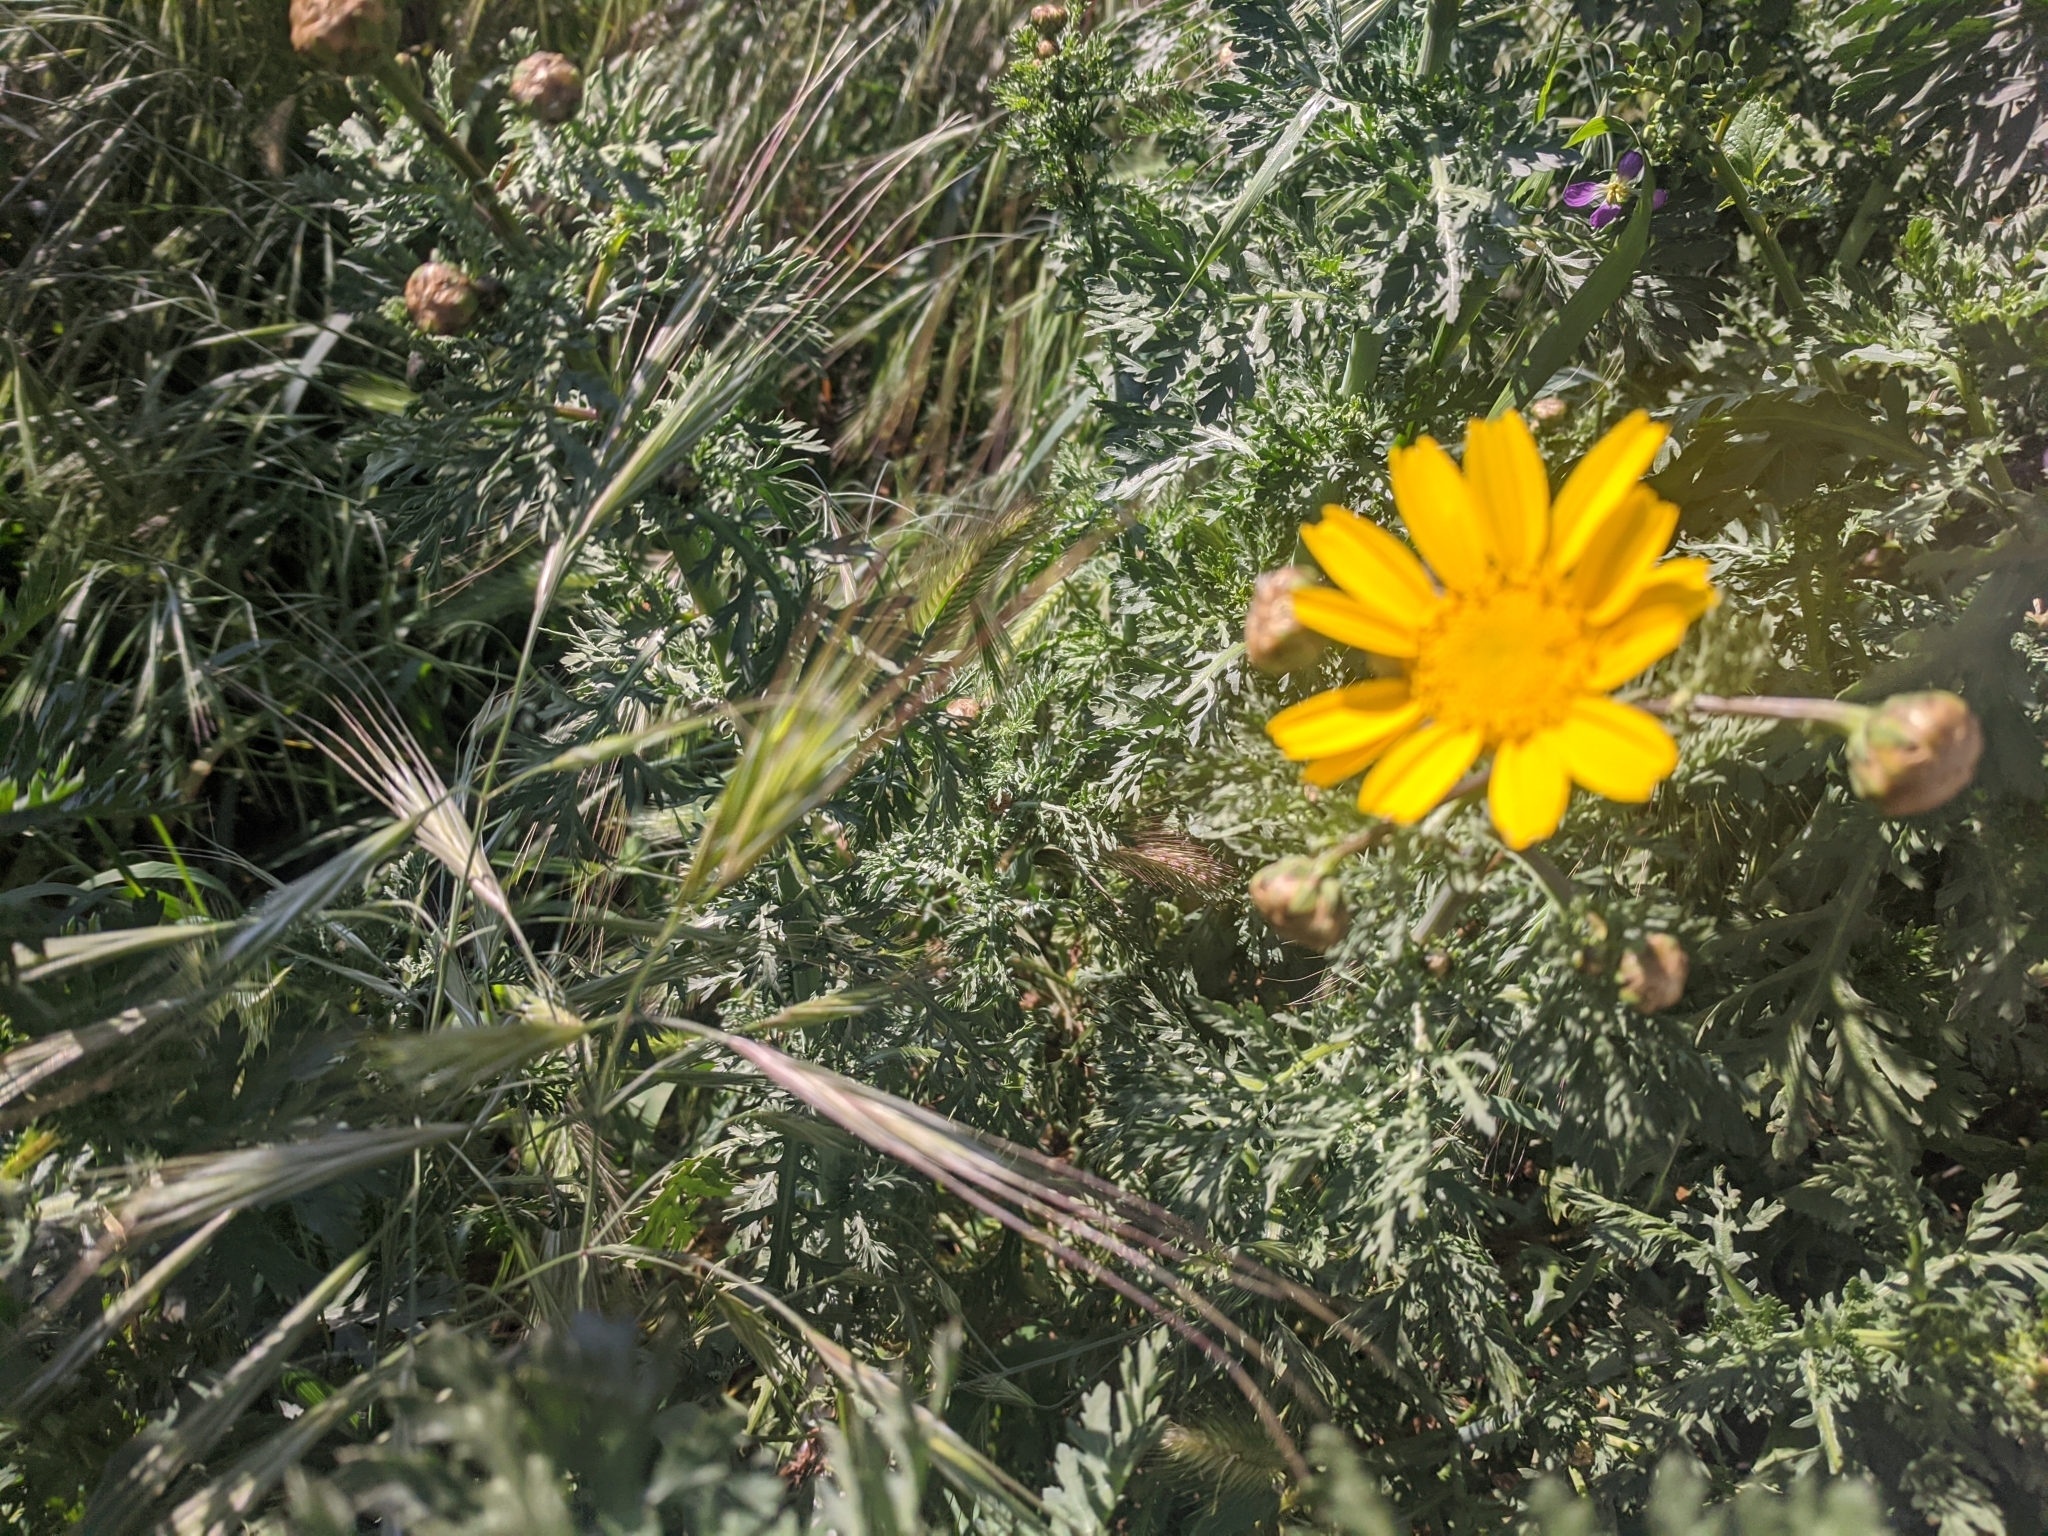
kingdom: Plantae
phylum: Tracheophyta
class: Magnoliopsida
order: Asterales
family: Asteraceae
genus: Glebionis
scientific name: Glebionis coronaria
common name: Crowndaisy
